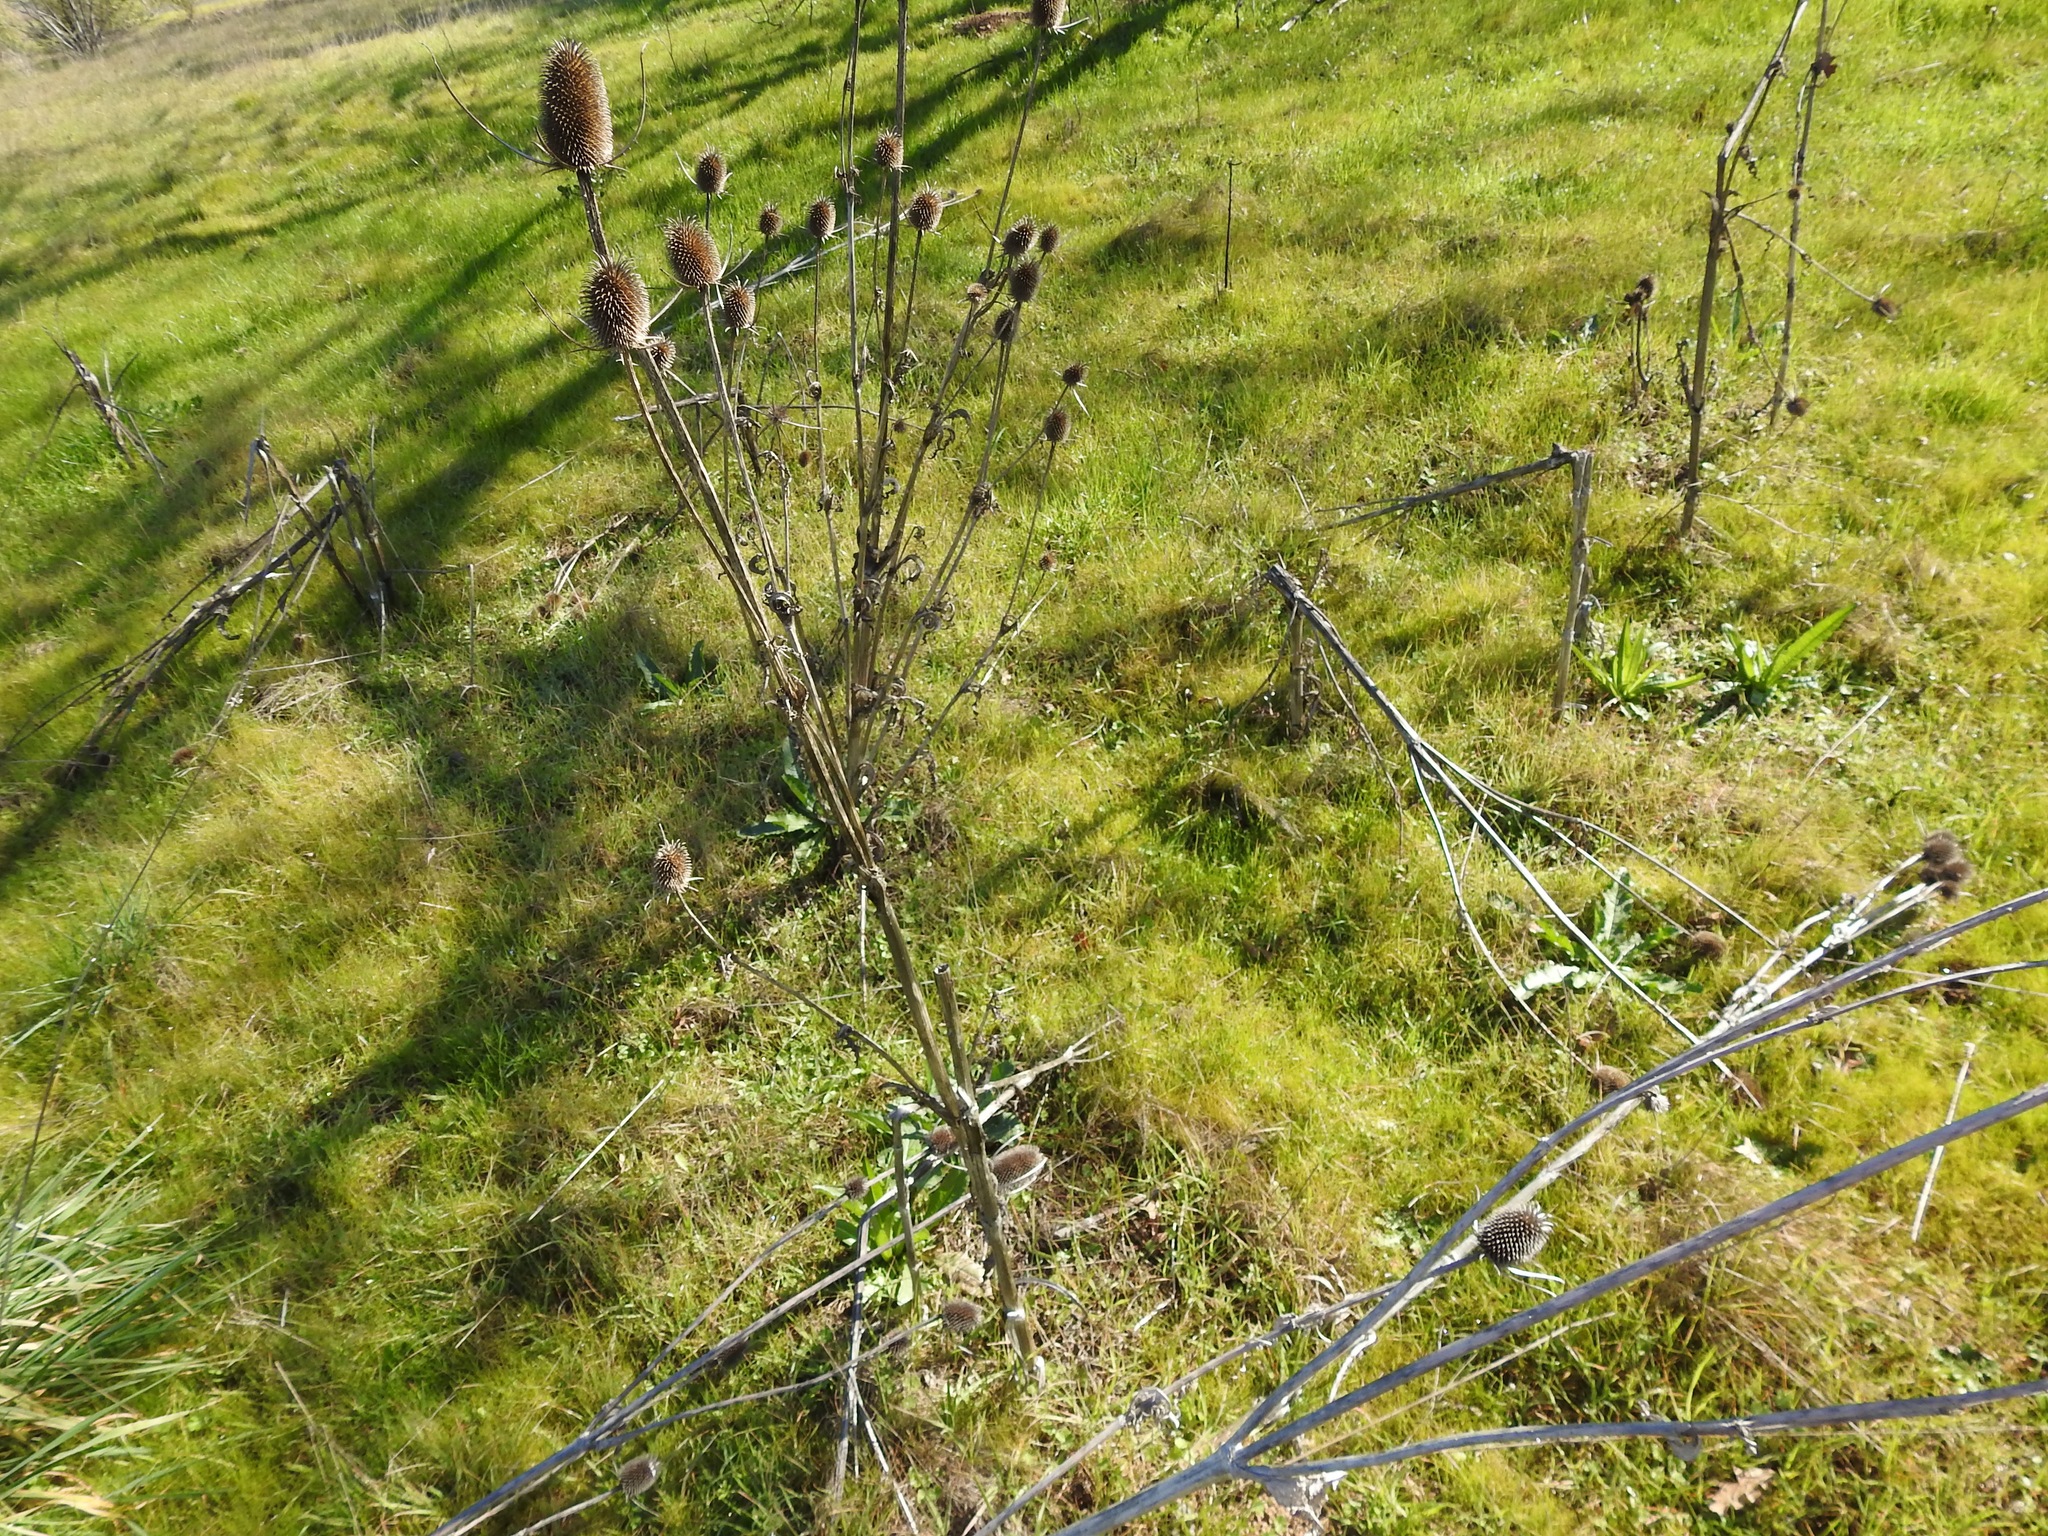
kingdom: Plantae
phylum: Tracheophyta
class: Magnoliopsida
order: Dipsacales
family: Caprifoliaceae
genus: Dipsacus
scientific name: Dipsacus sativus
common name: Fuller's teasel
